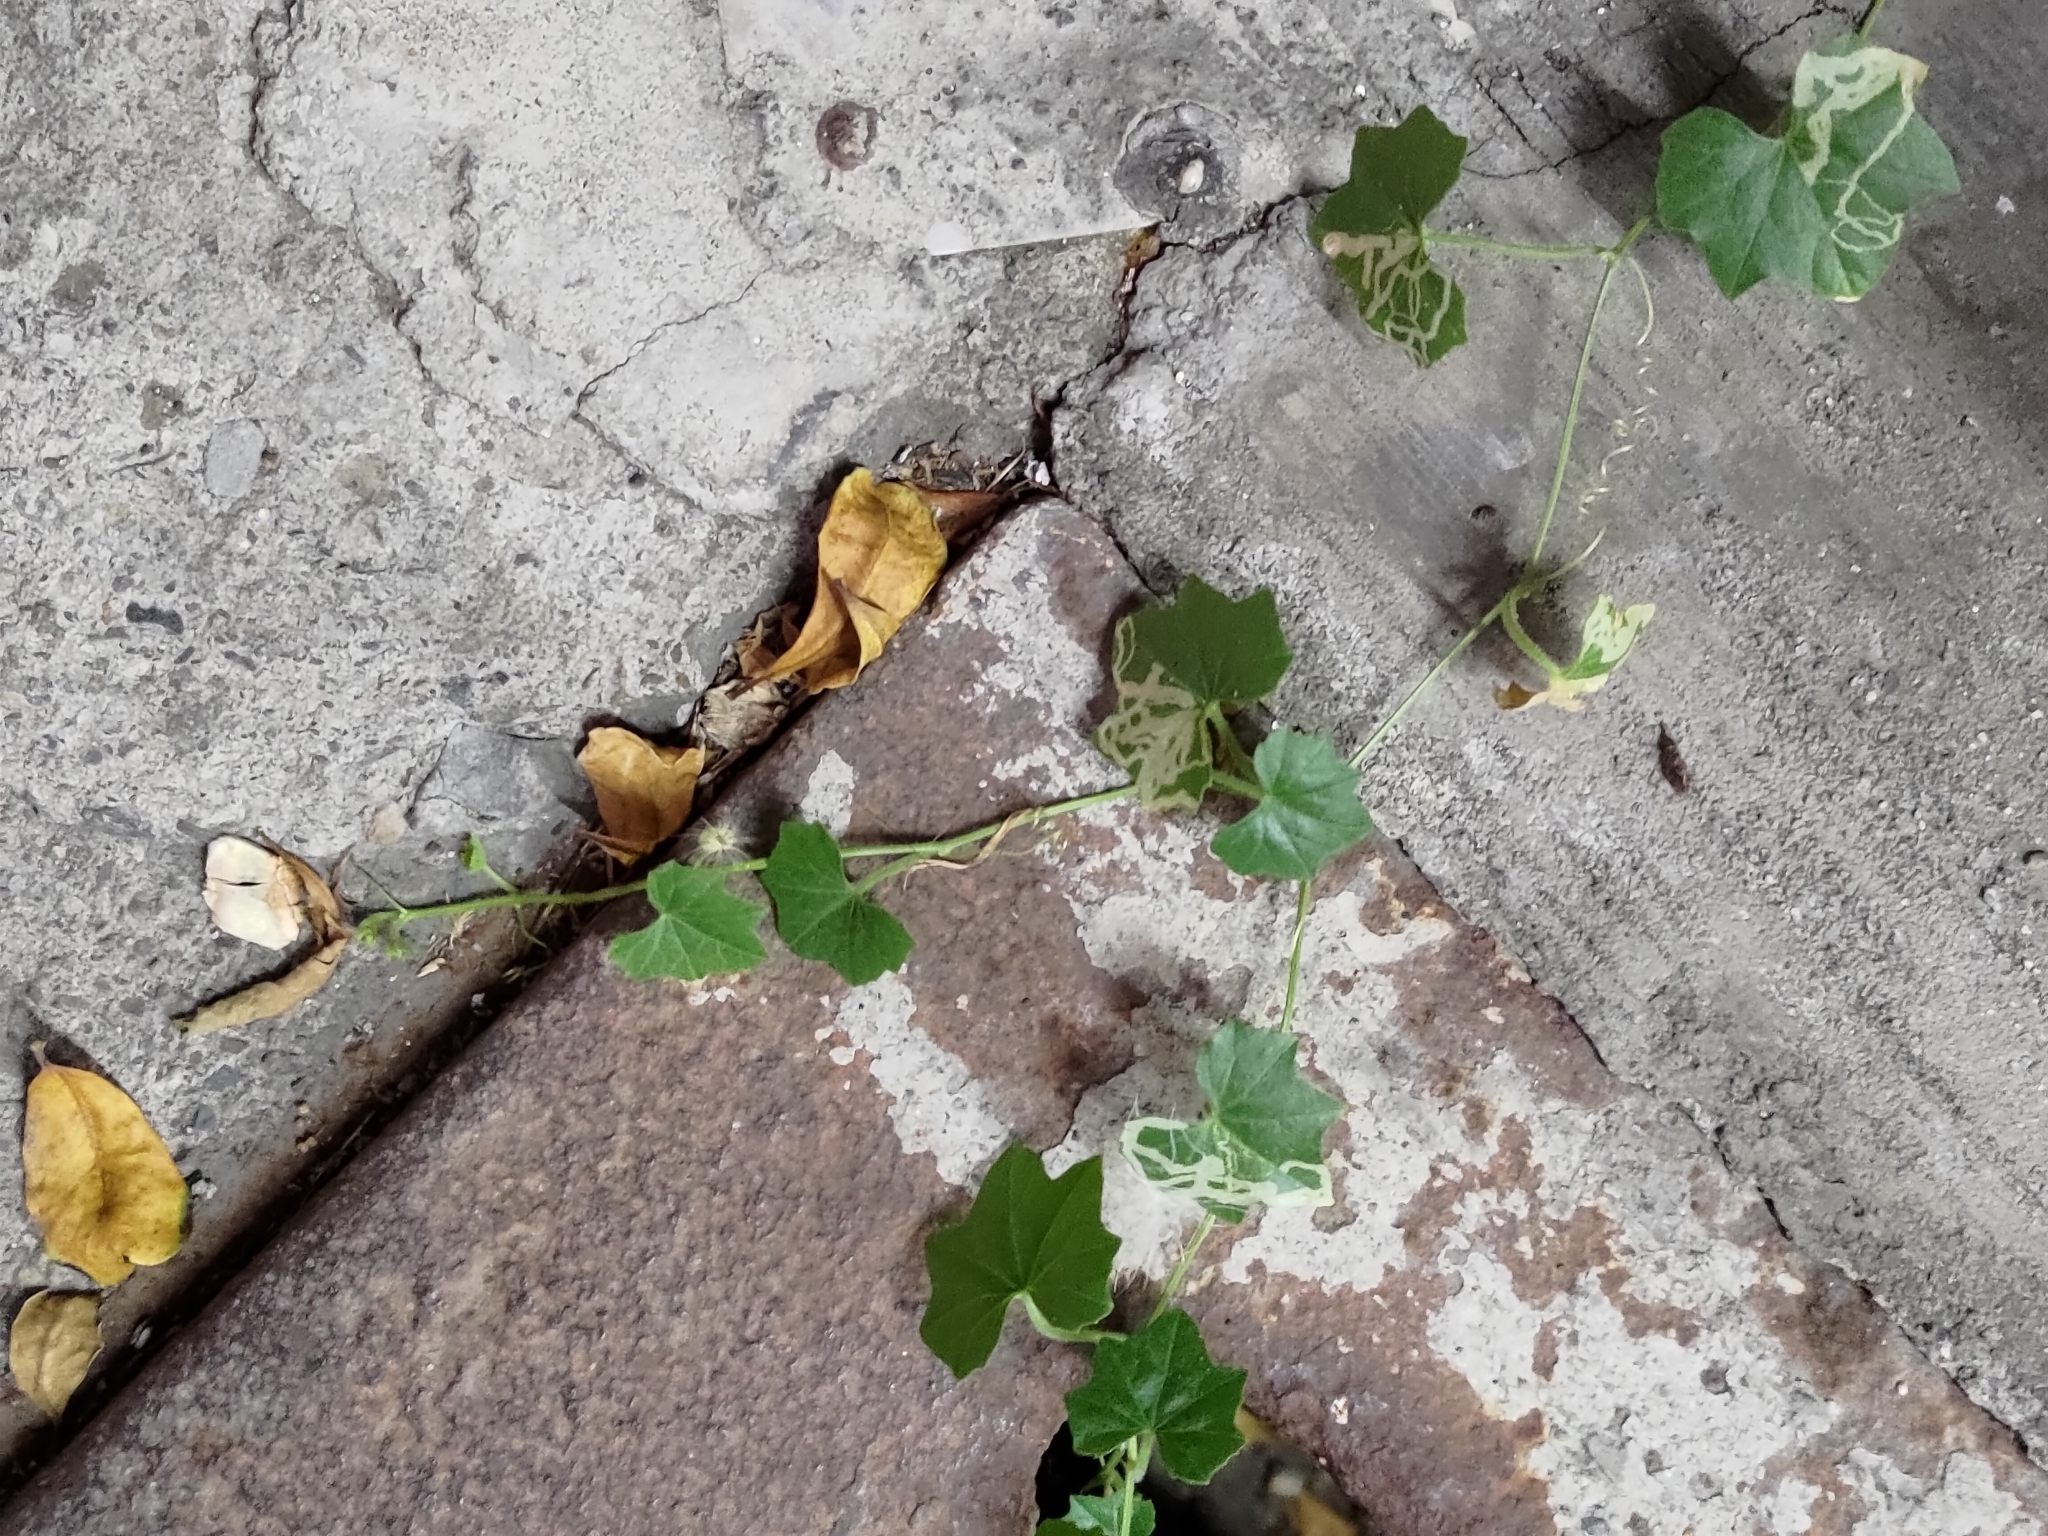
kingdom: Plantae
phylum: Tracheophyta
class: Magnoliopsida
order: Cucurbitales
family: Cucurbitaceae
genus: Melothria
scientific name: Melothria pendula
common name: Creeping-cucumber
